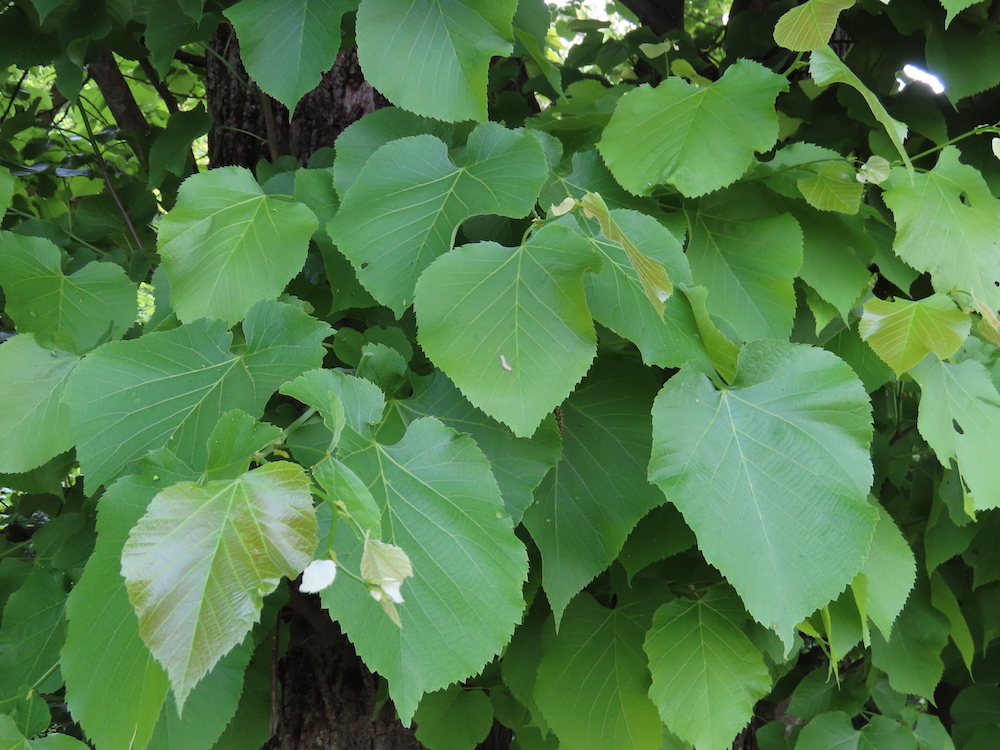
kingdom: Animalia
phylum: Arthropoda
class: Insecta
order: Lepidoptera
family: Erebidae
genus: Orgyia
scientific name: Orgyia leucostigma
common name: White-marked tussock moth
